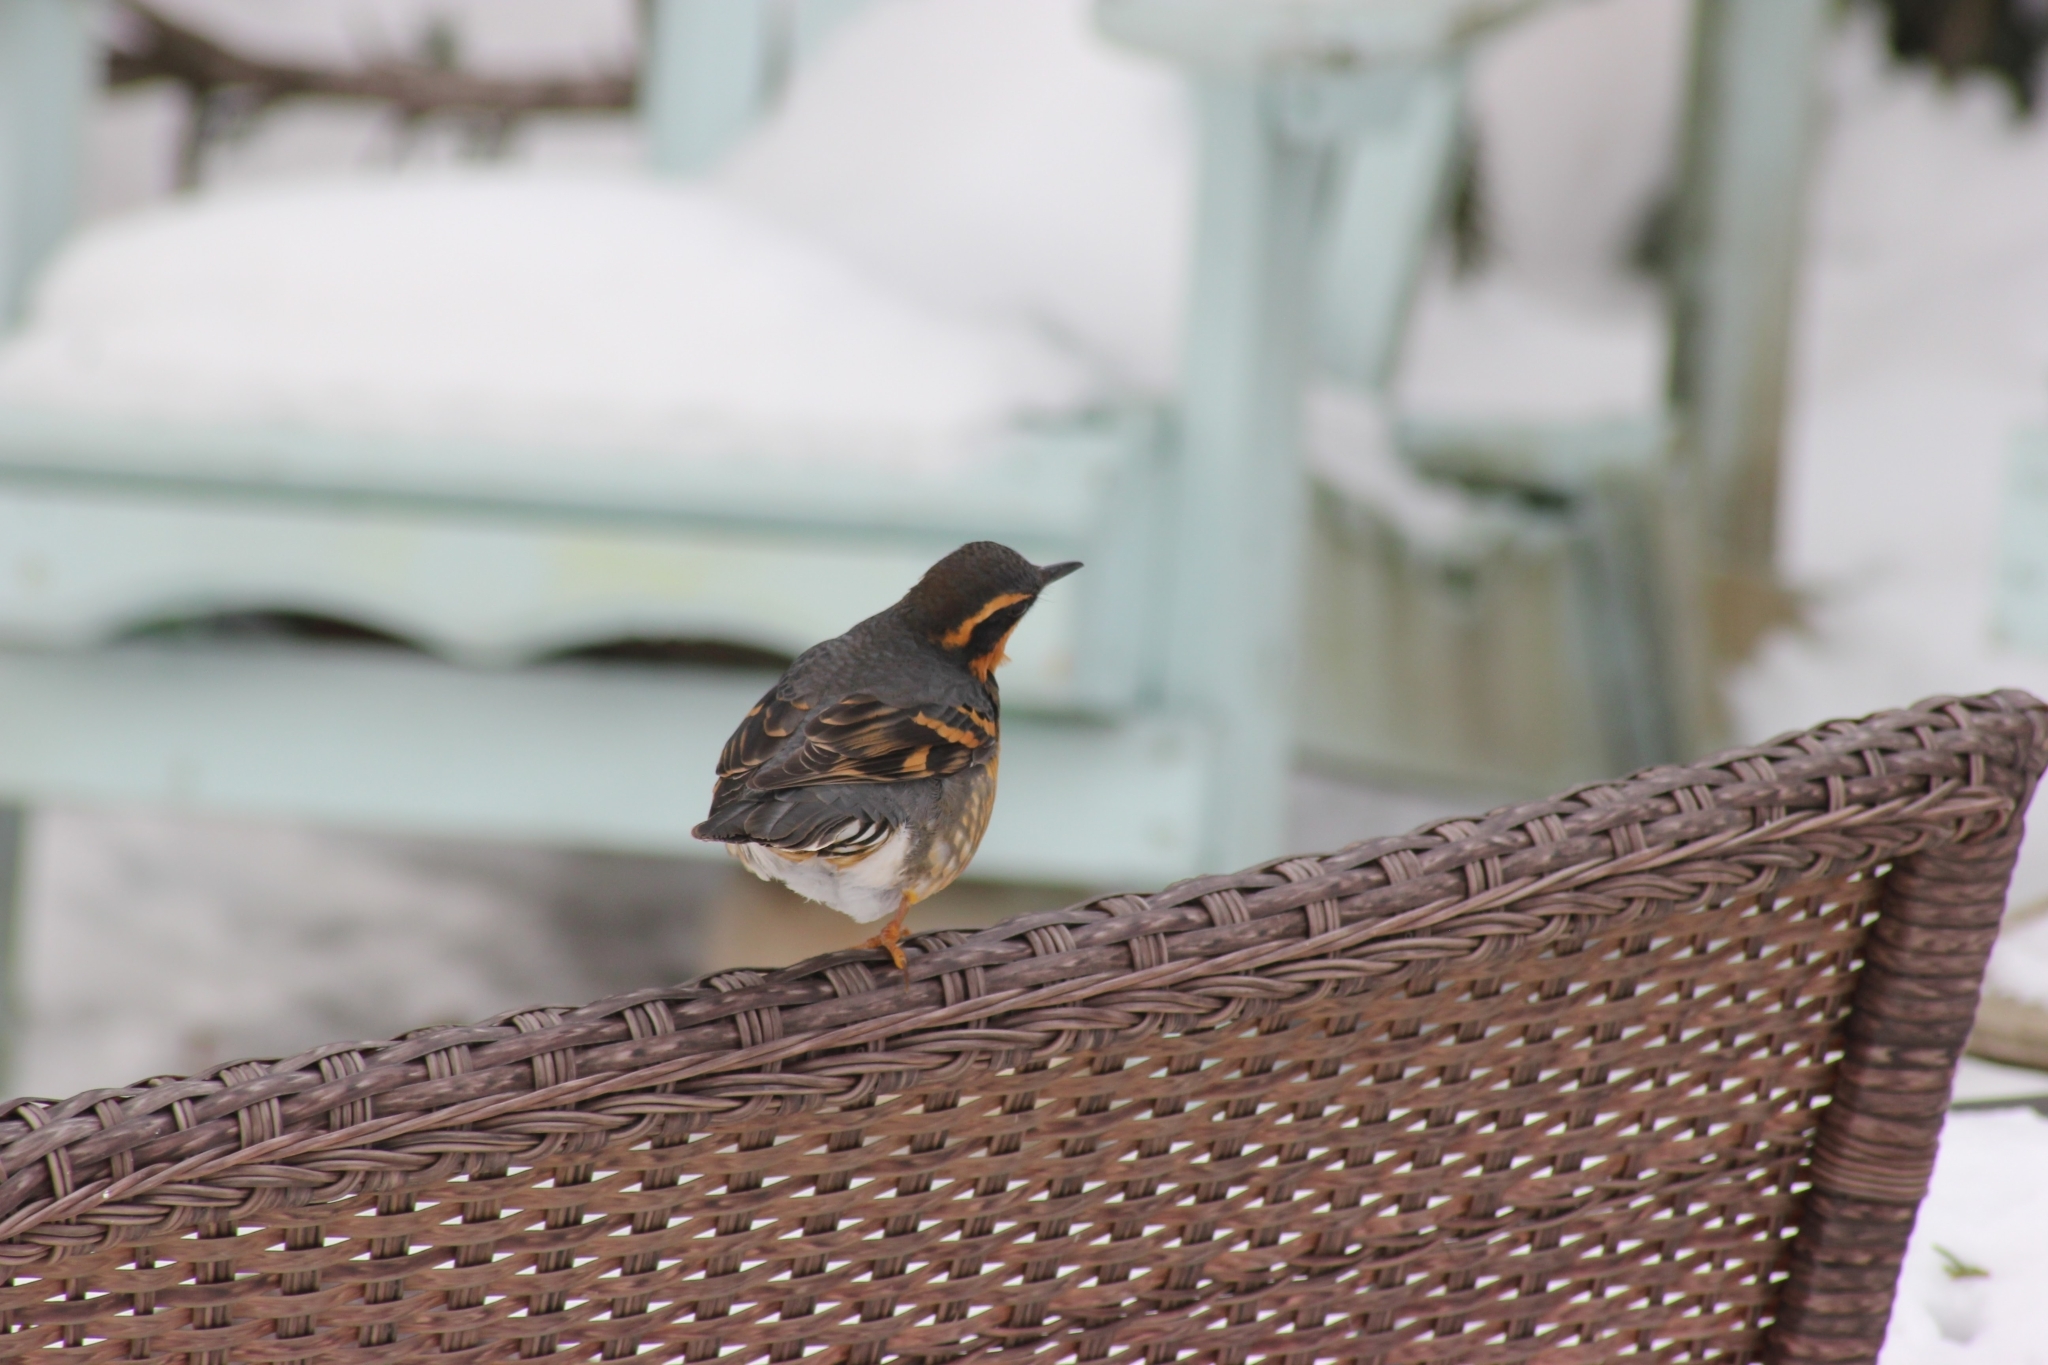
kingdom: Animalia
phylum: Chordata
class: Aves
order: Passeriformes
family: Turdidae
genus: Ixoreus
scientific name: Ixoreus naevius
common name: Varied thrush
